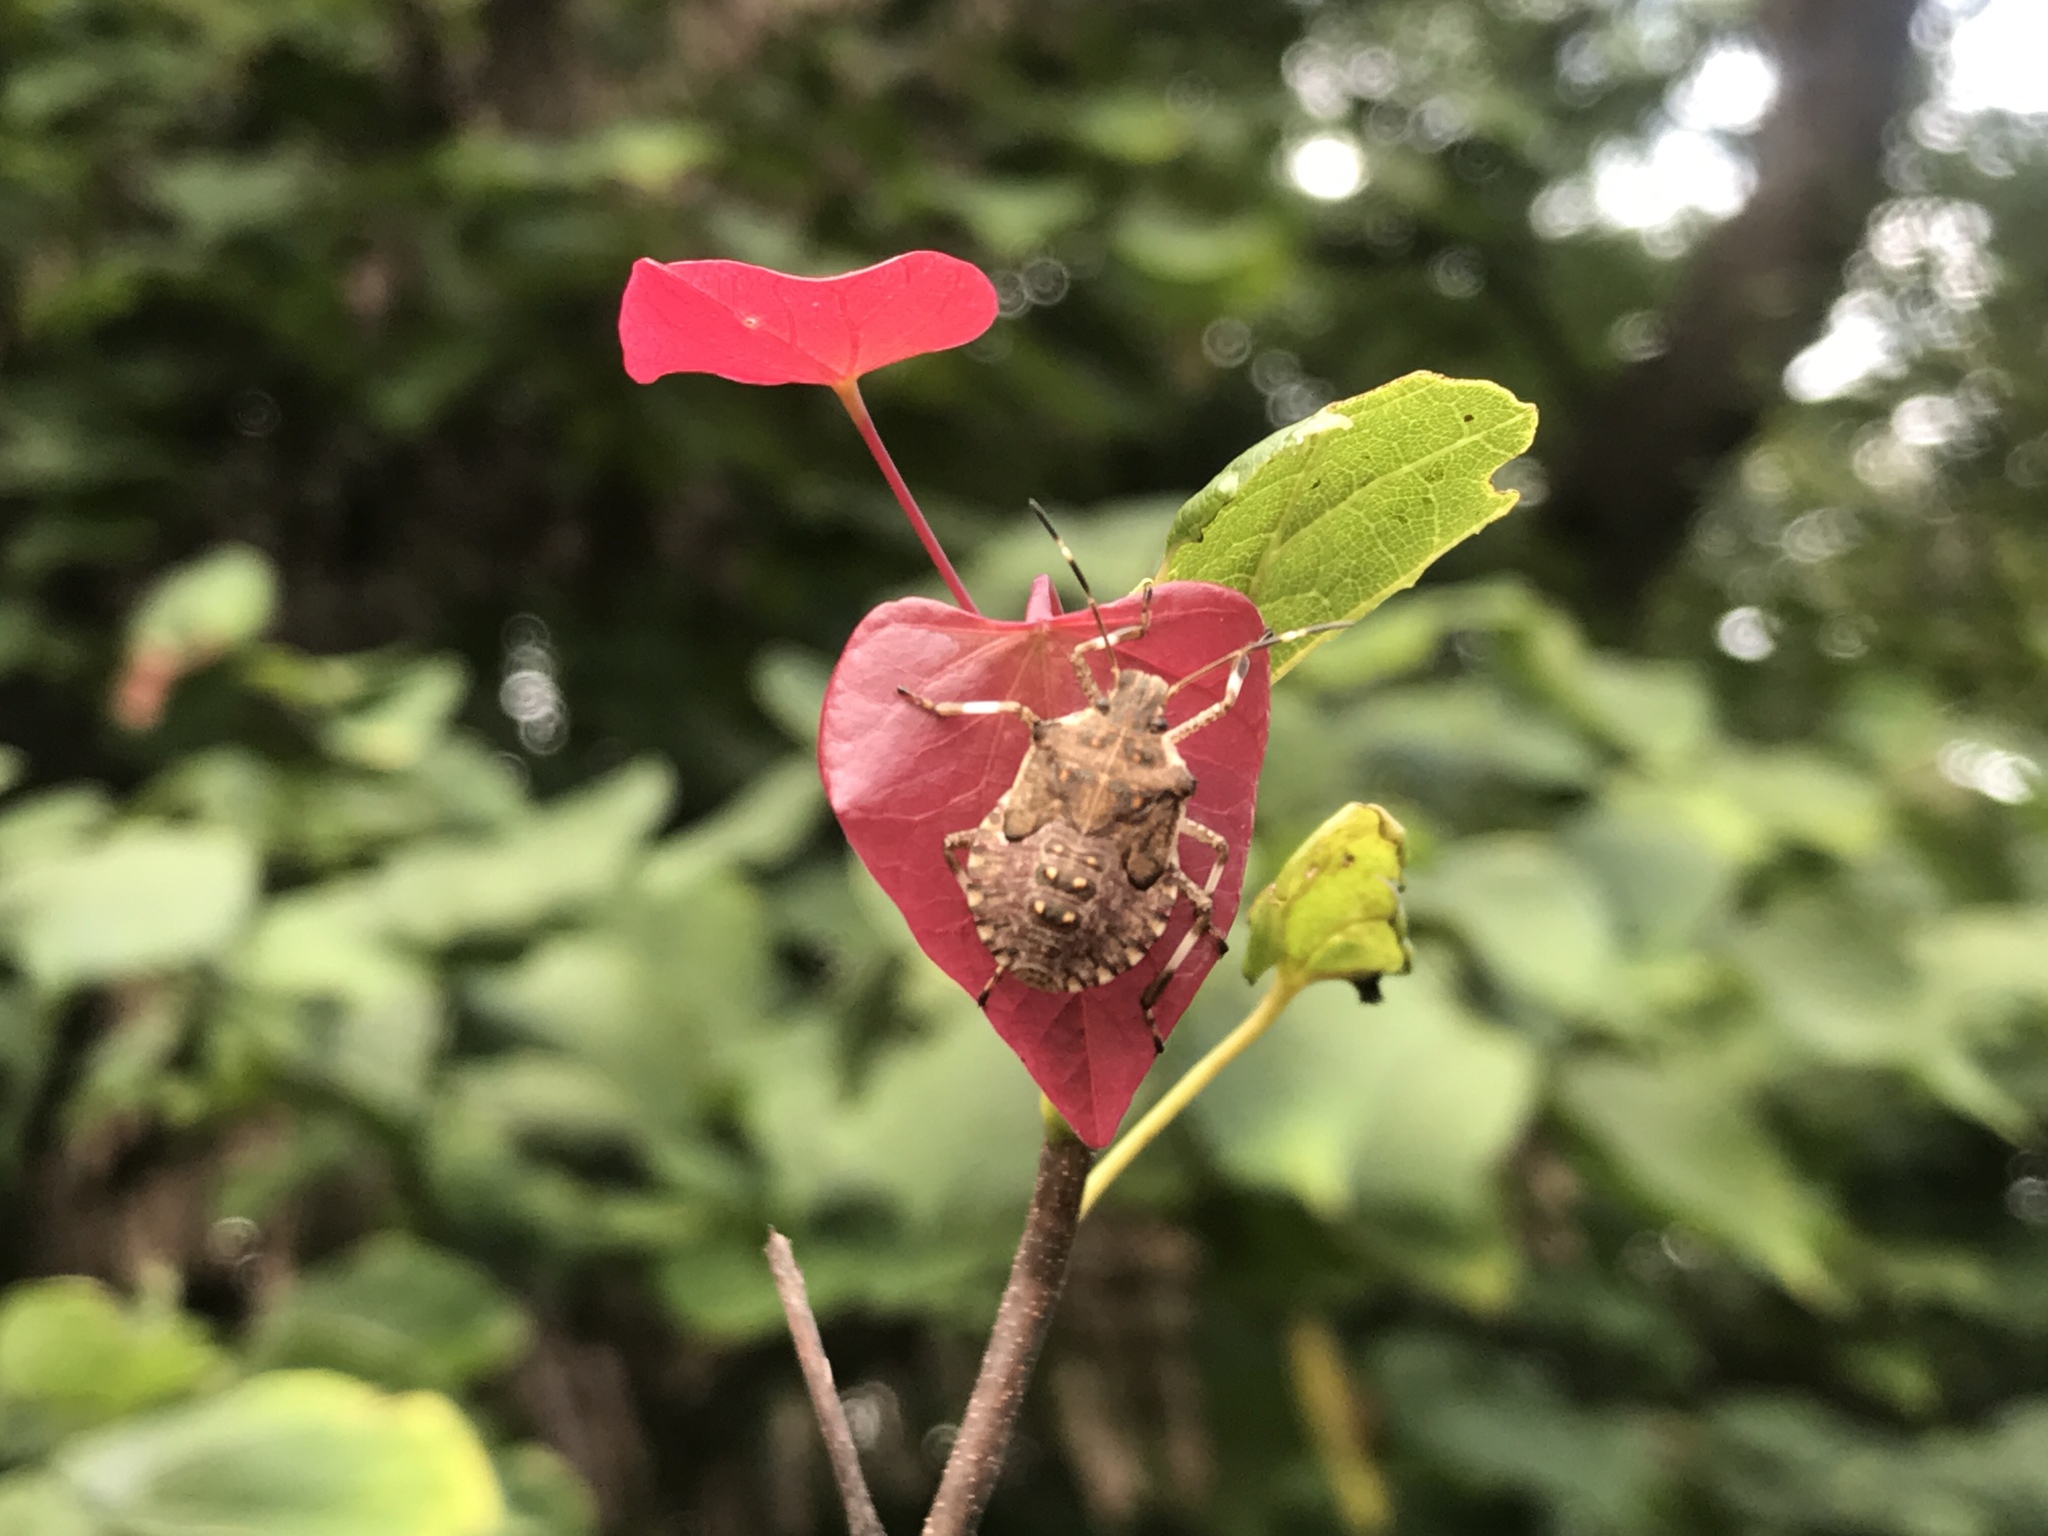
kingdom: Animalia
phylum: Arthropoda
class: Insecta
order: Hemiptera
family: Pentatomidae
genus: Halyomorpha
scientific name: Halyomorpha halys
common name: Brown marmorated stink bug
